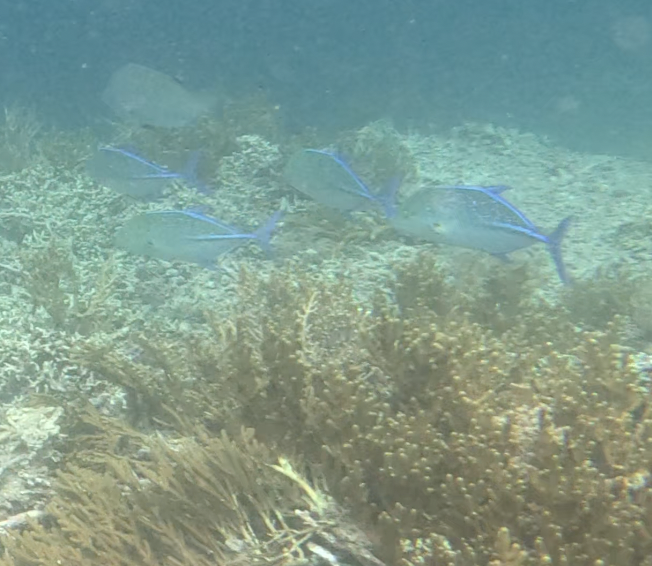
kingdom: Animalia
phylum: Chordata
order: Perciformes
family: Carangidae
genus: Caranx
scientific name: Caranx melampygus
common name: Bluefin trevally
